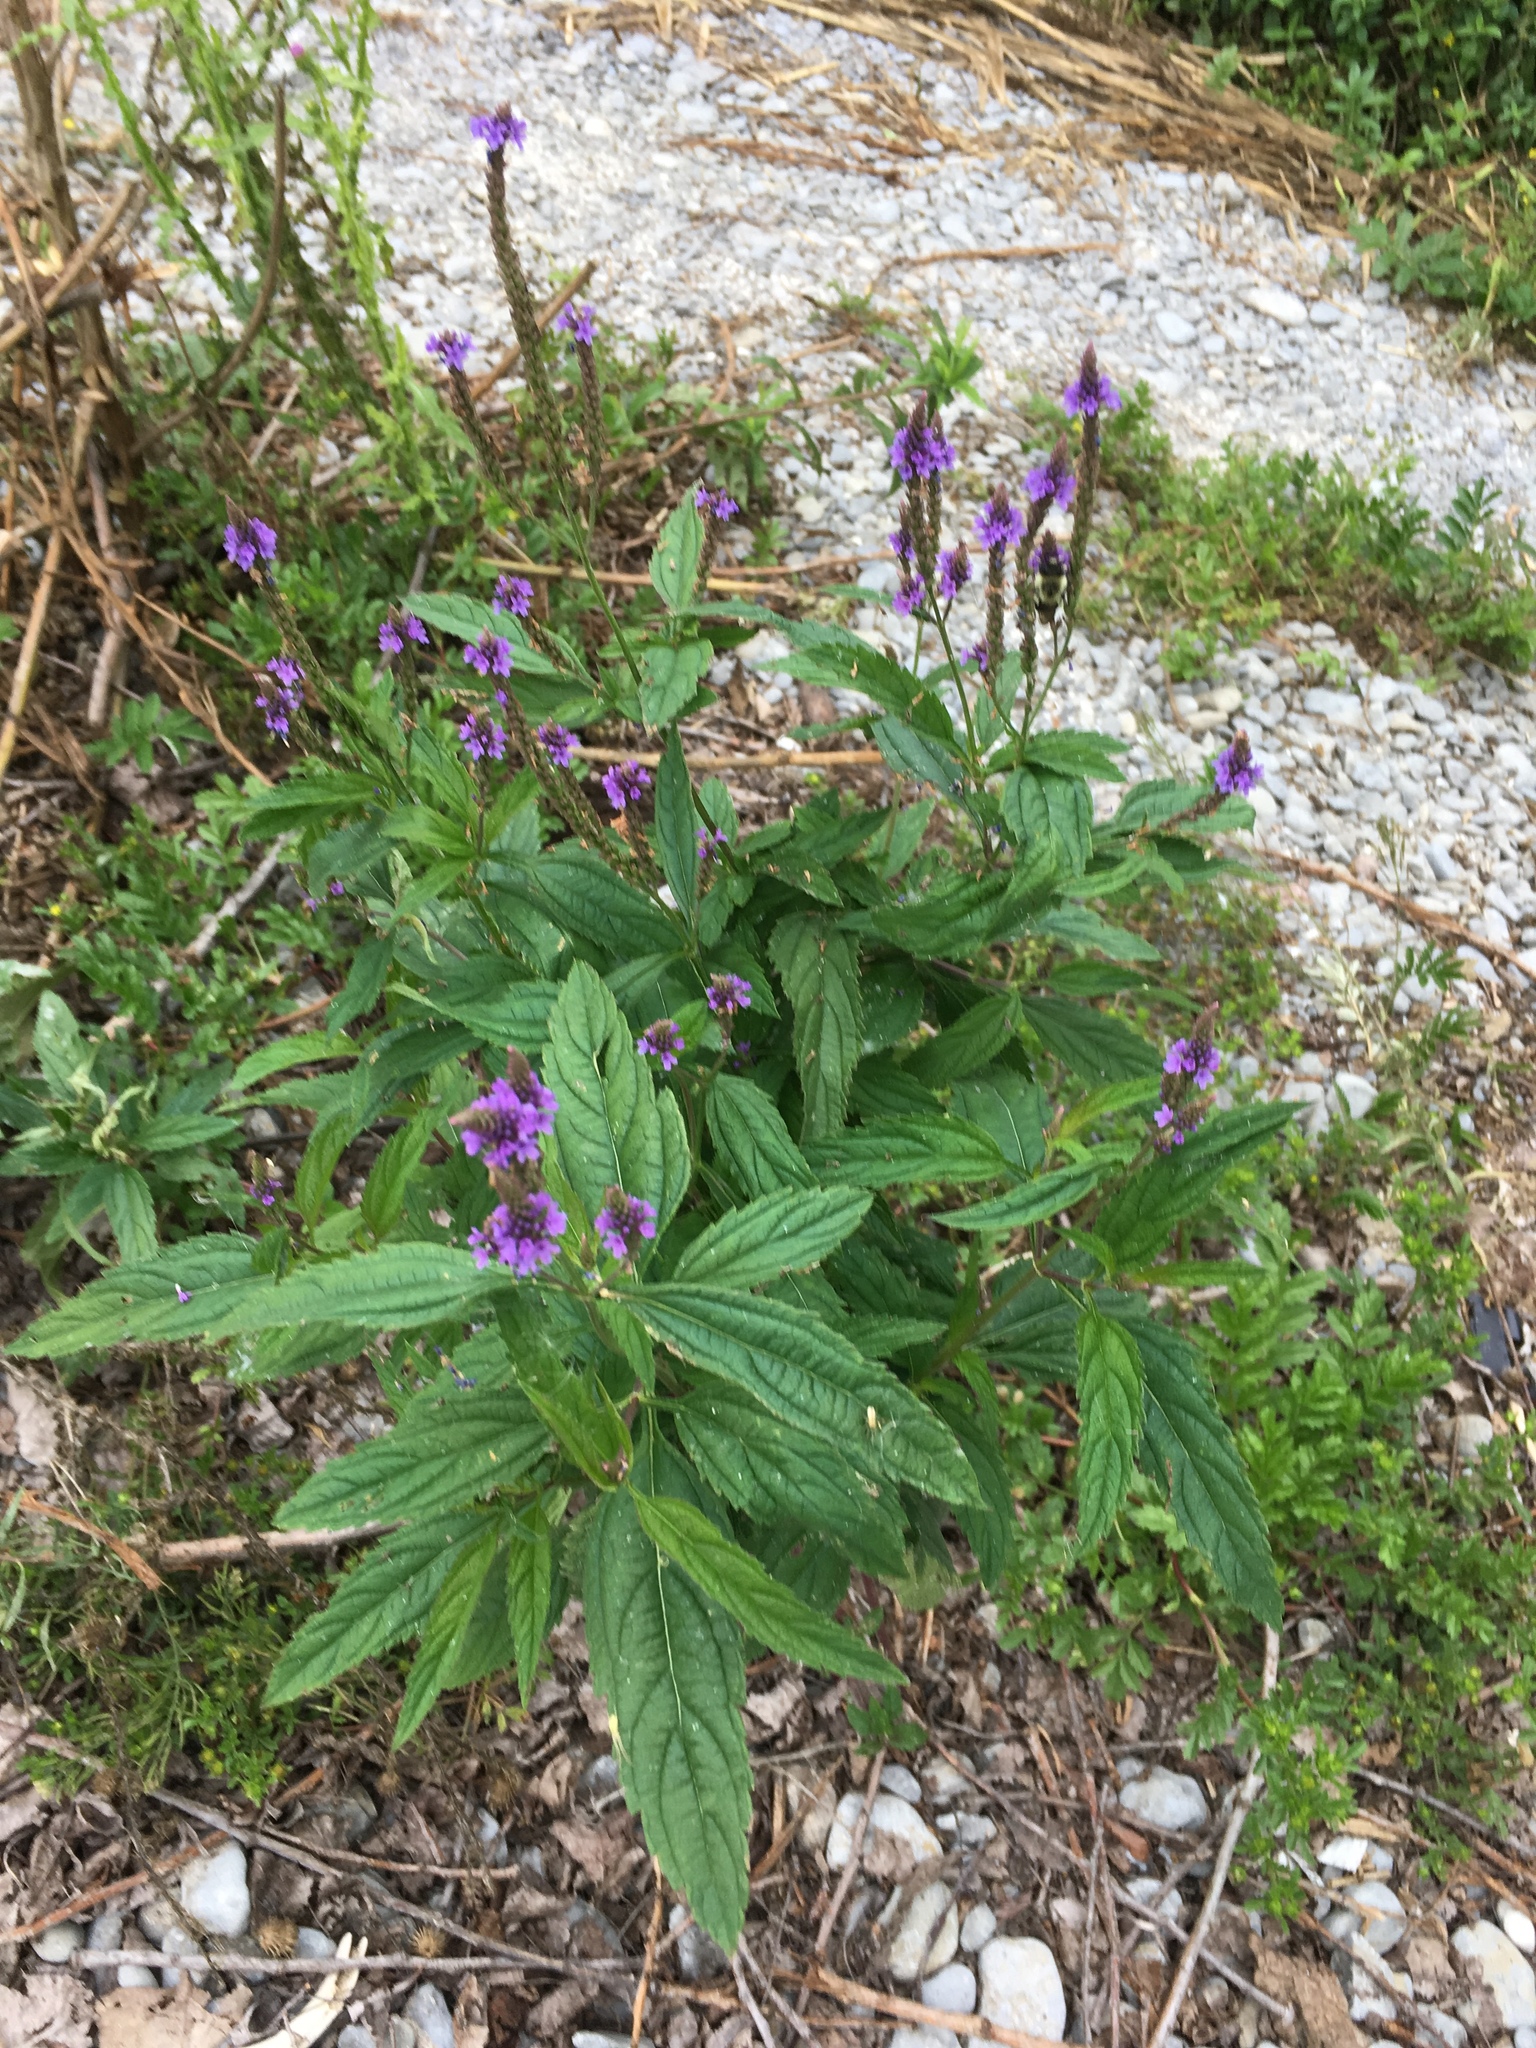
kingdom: Plantae
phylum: Tracheophyta
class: Magnoliopsida
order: Lamiales
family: Verbenaceae
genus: Verbena
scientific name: Verbena hastata
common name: American blue vervain
